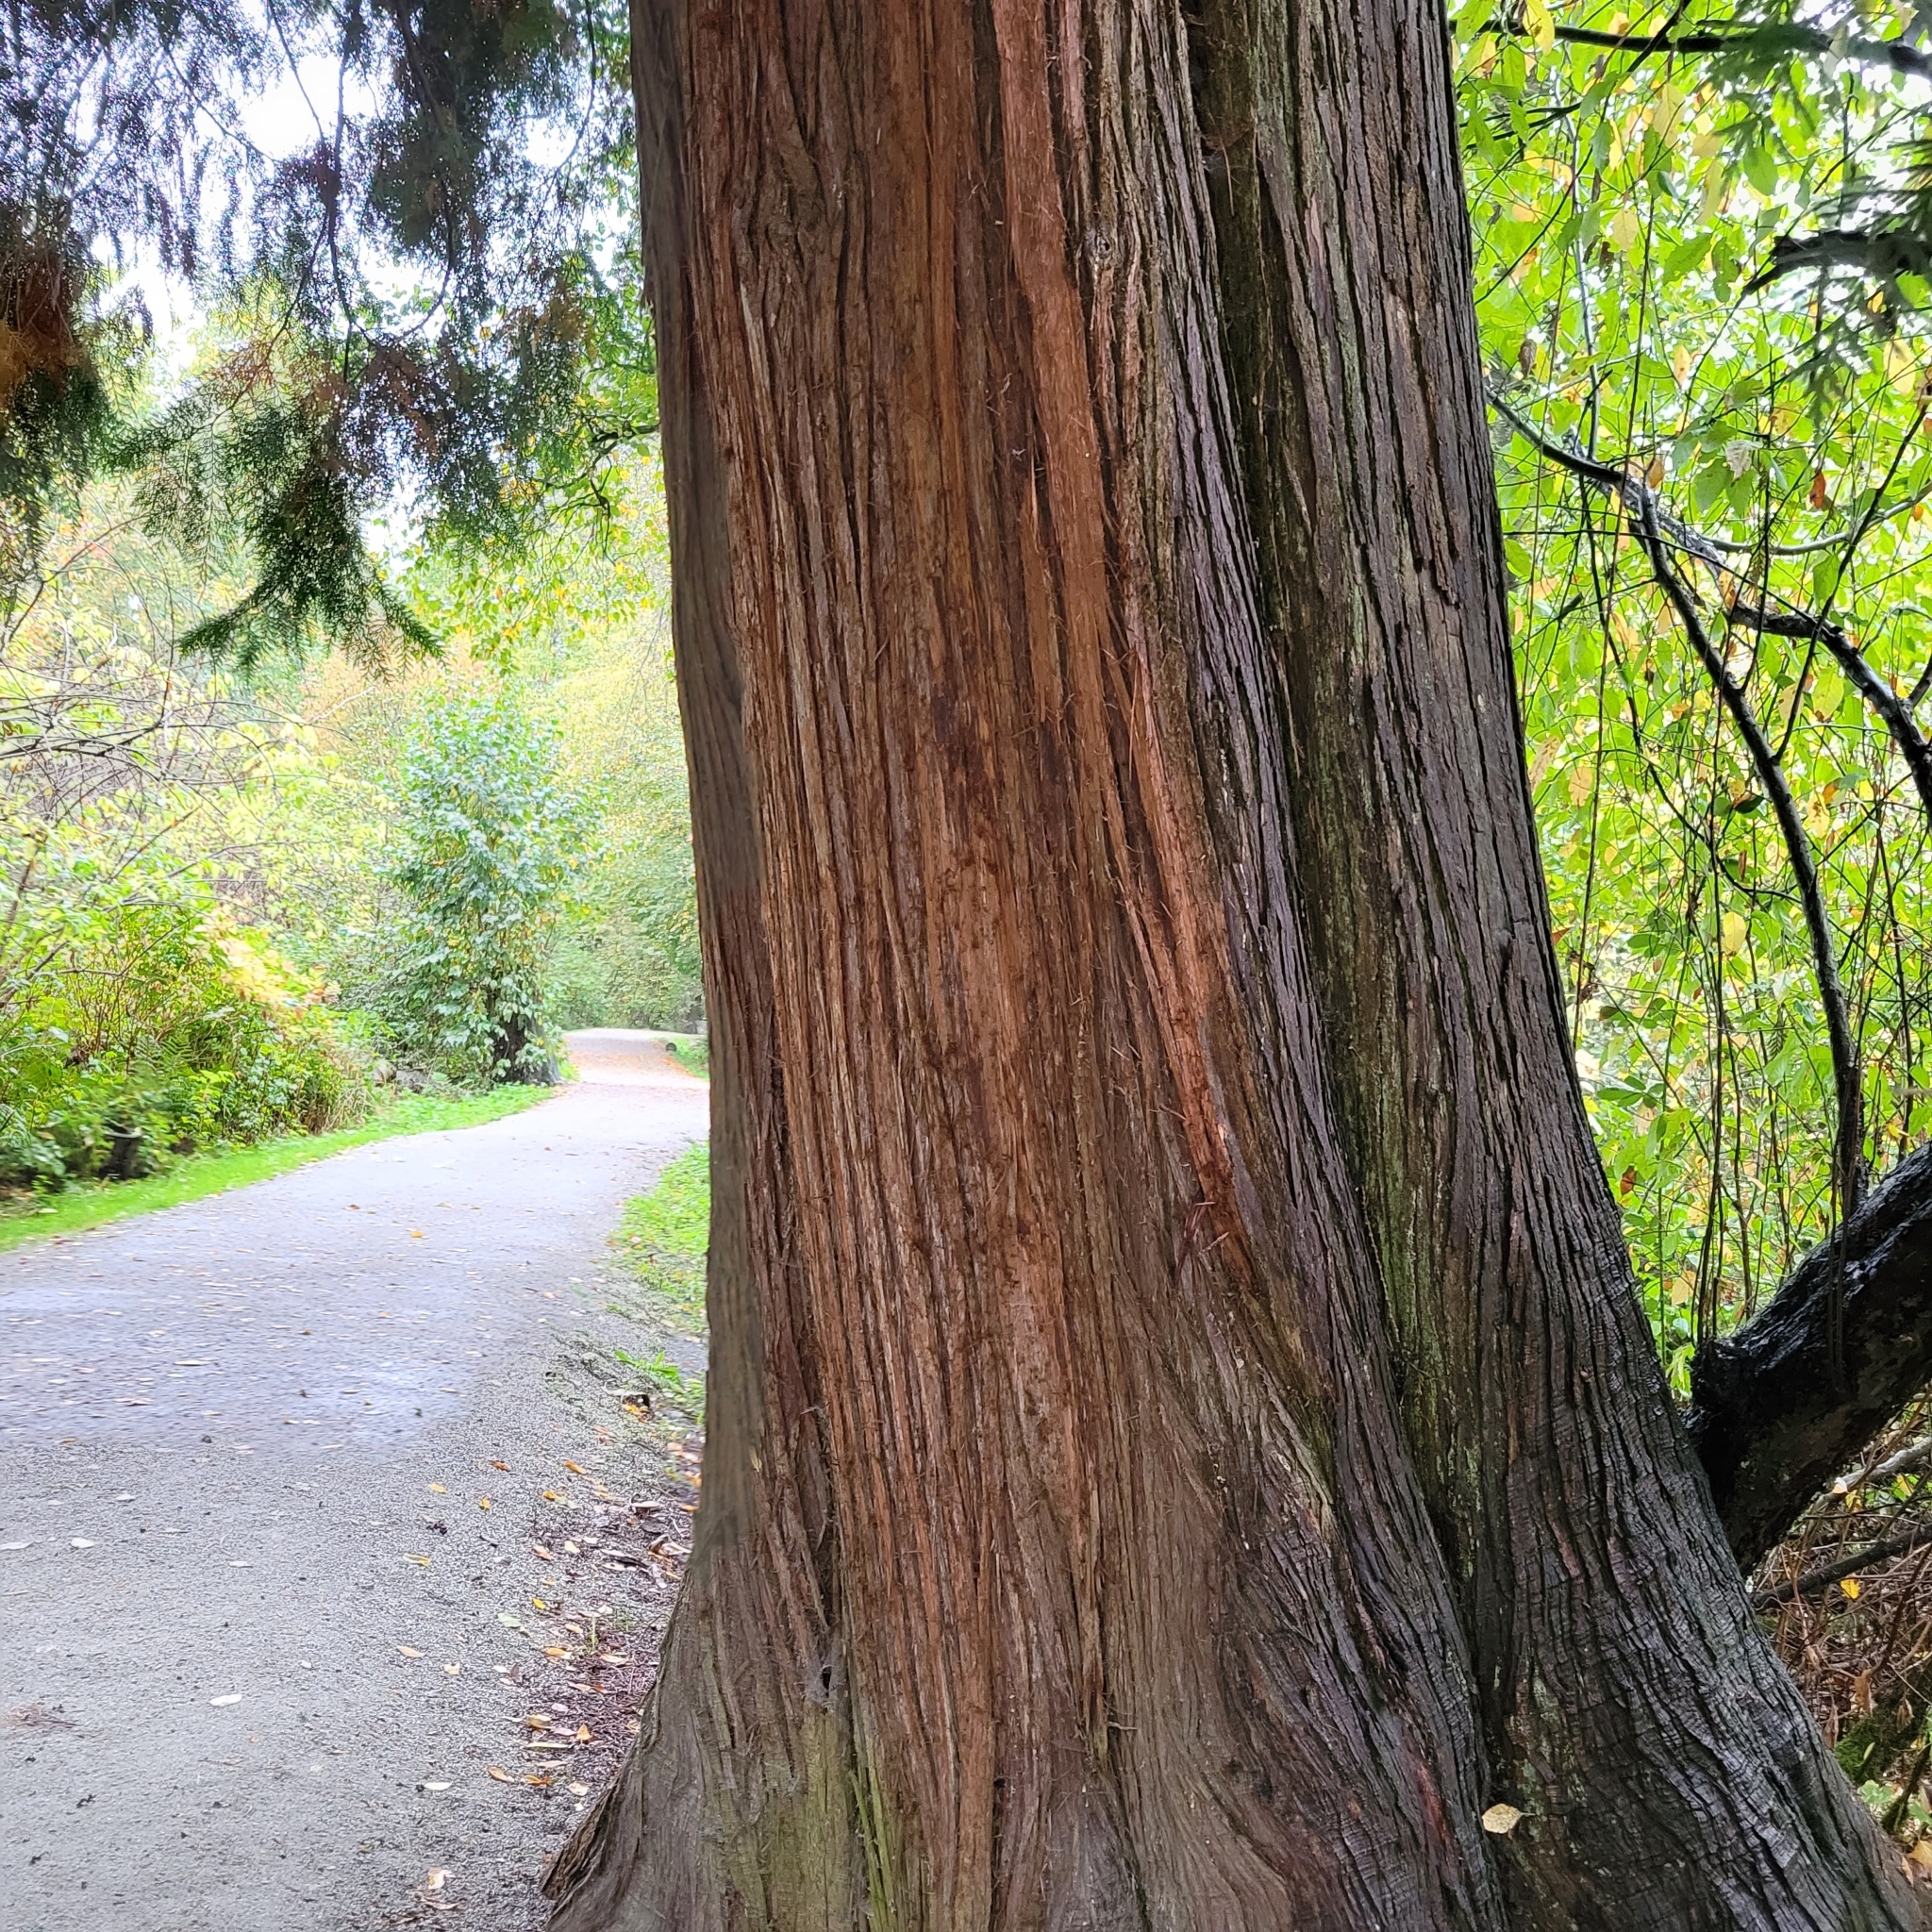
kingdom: Plantae
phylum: Tracheophyta
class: Pinopsida
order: Pinales
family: Cupressaceae
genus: Thuja
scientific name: Thuja plicata
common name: Western red-cedar
